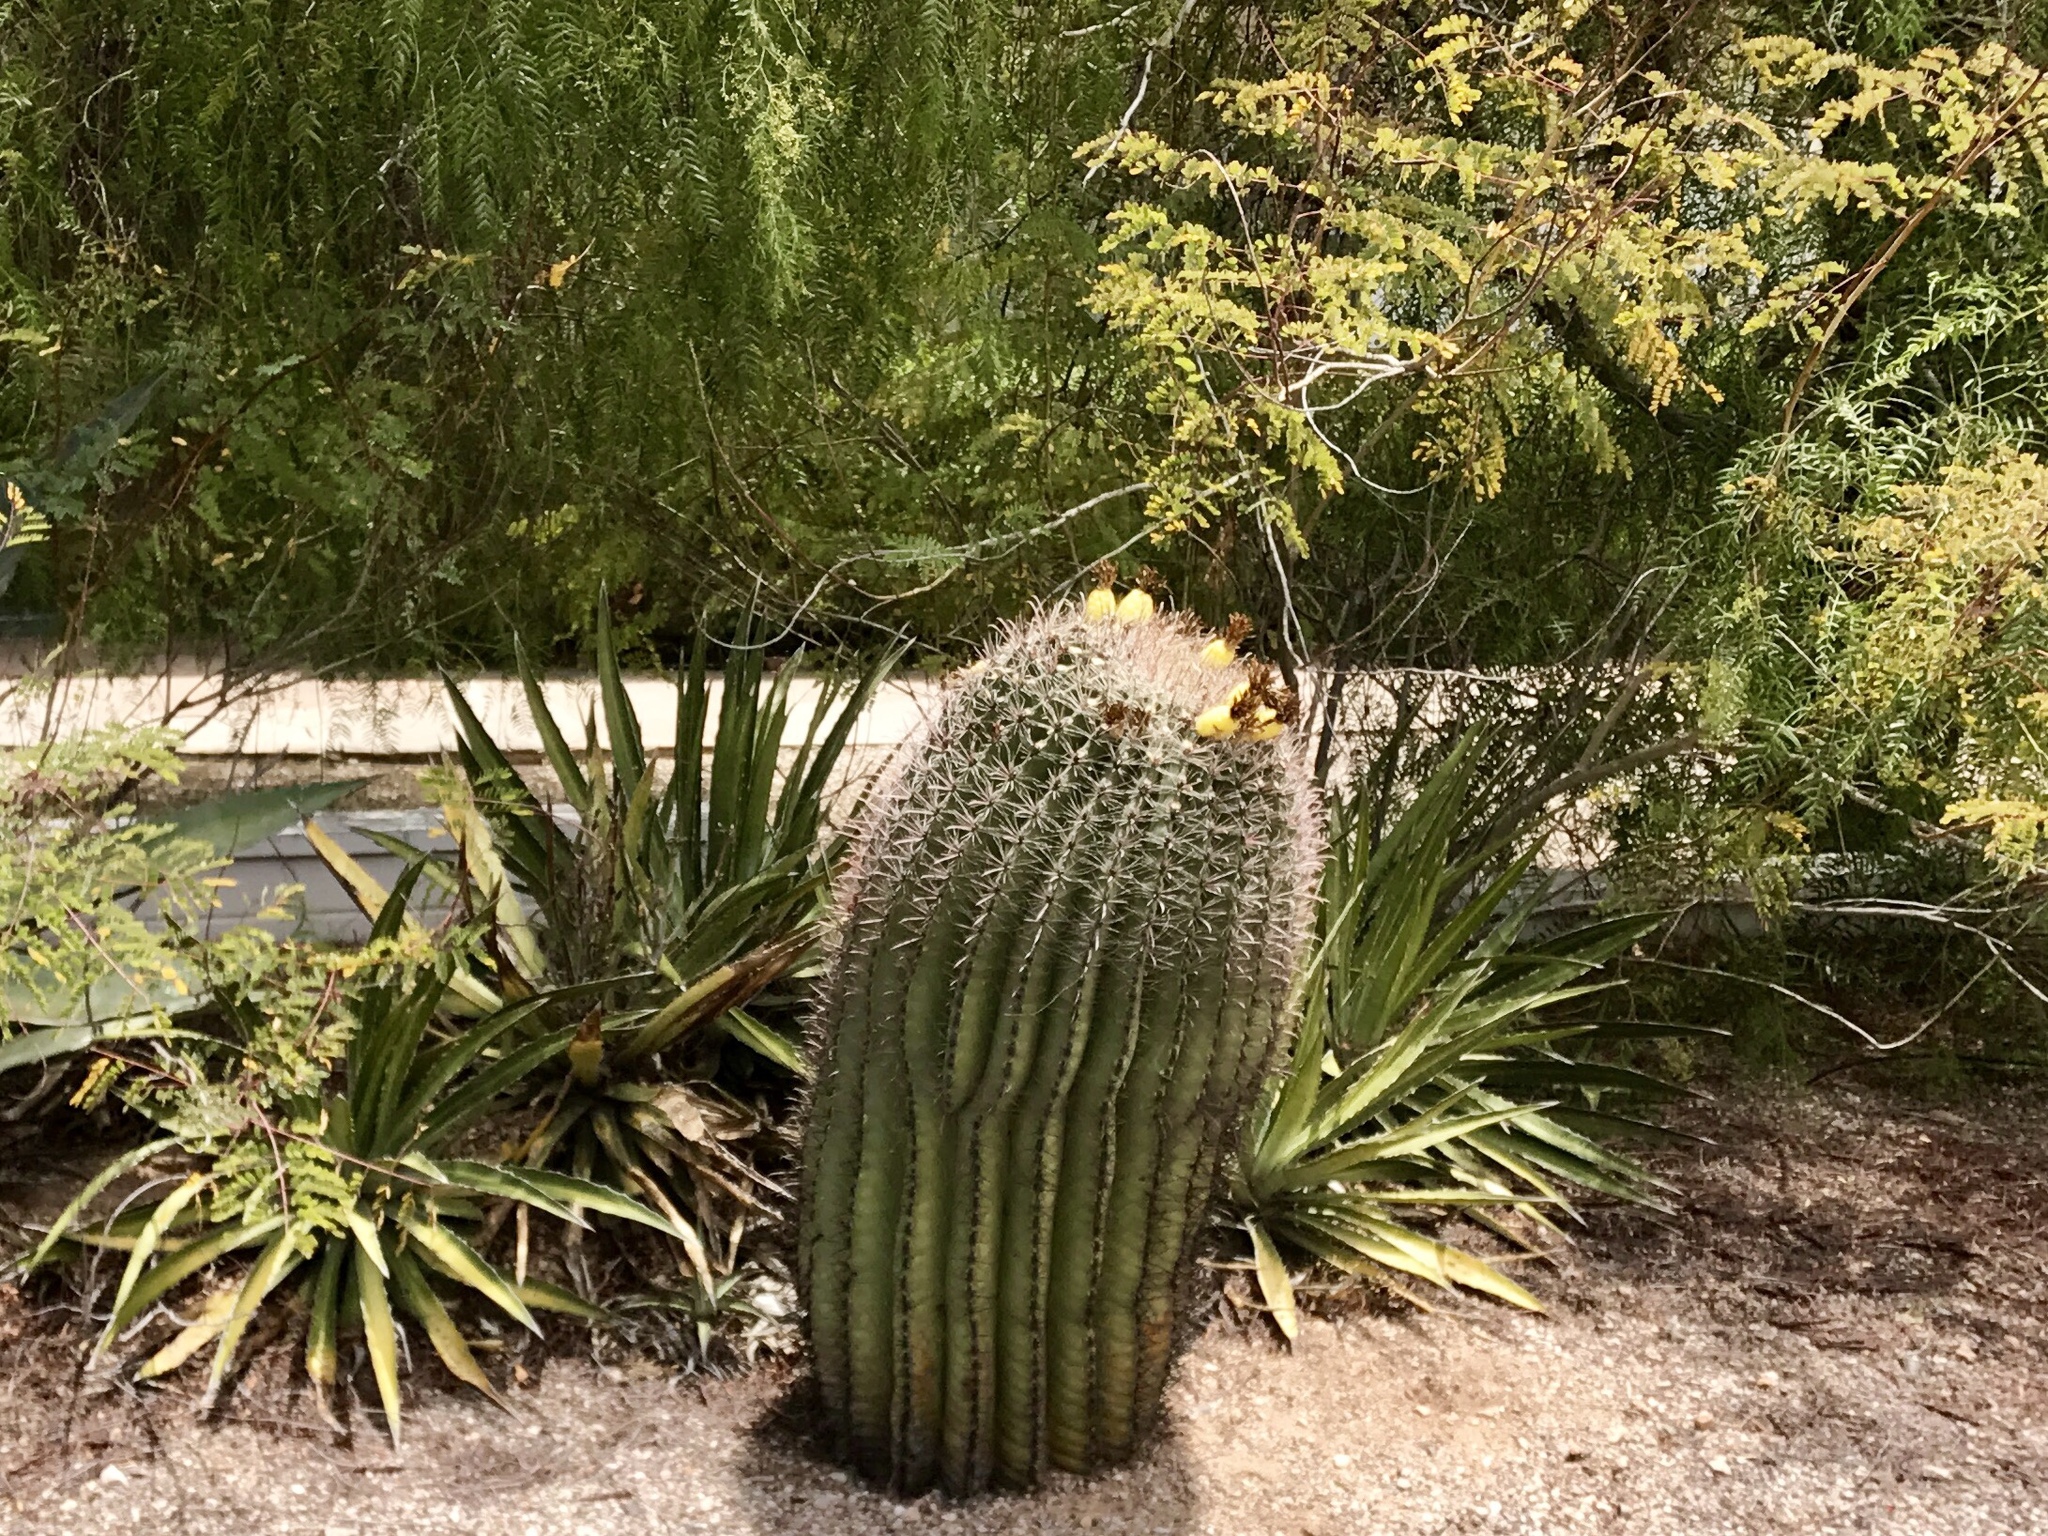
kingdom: Plantae
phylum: Tracheophyta
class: Magnoliopsida
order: Caryophyllales
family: Cactaceae
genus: Ferocactus
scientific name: Ferocactus wislizeni
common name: Candy barrel cactus
